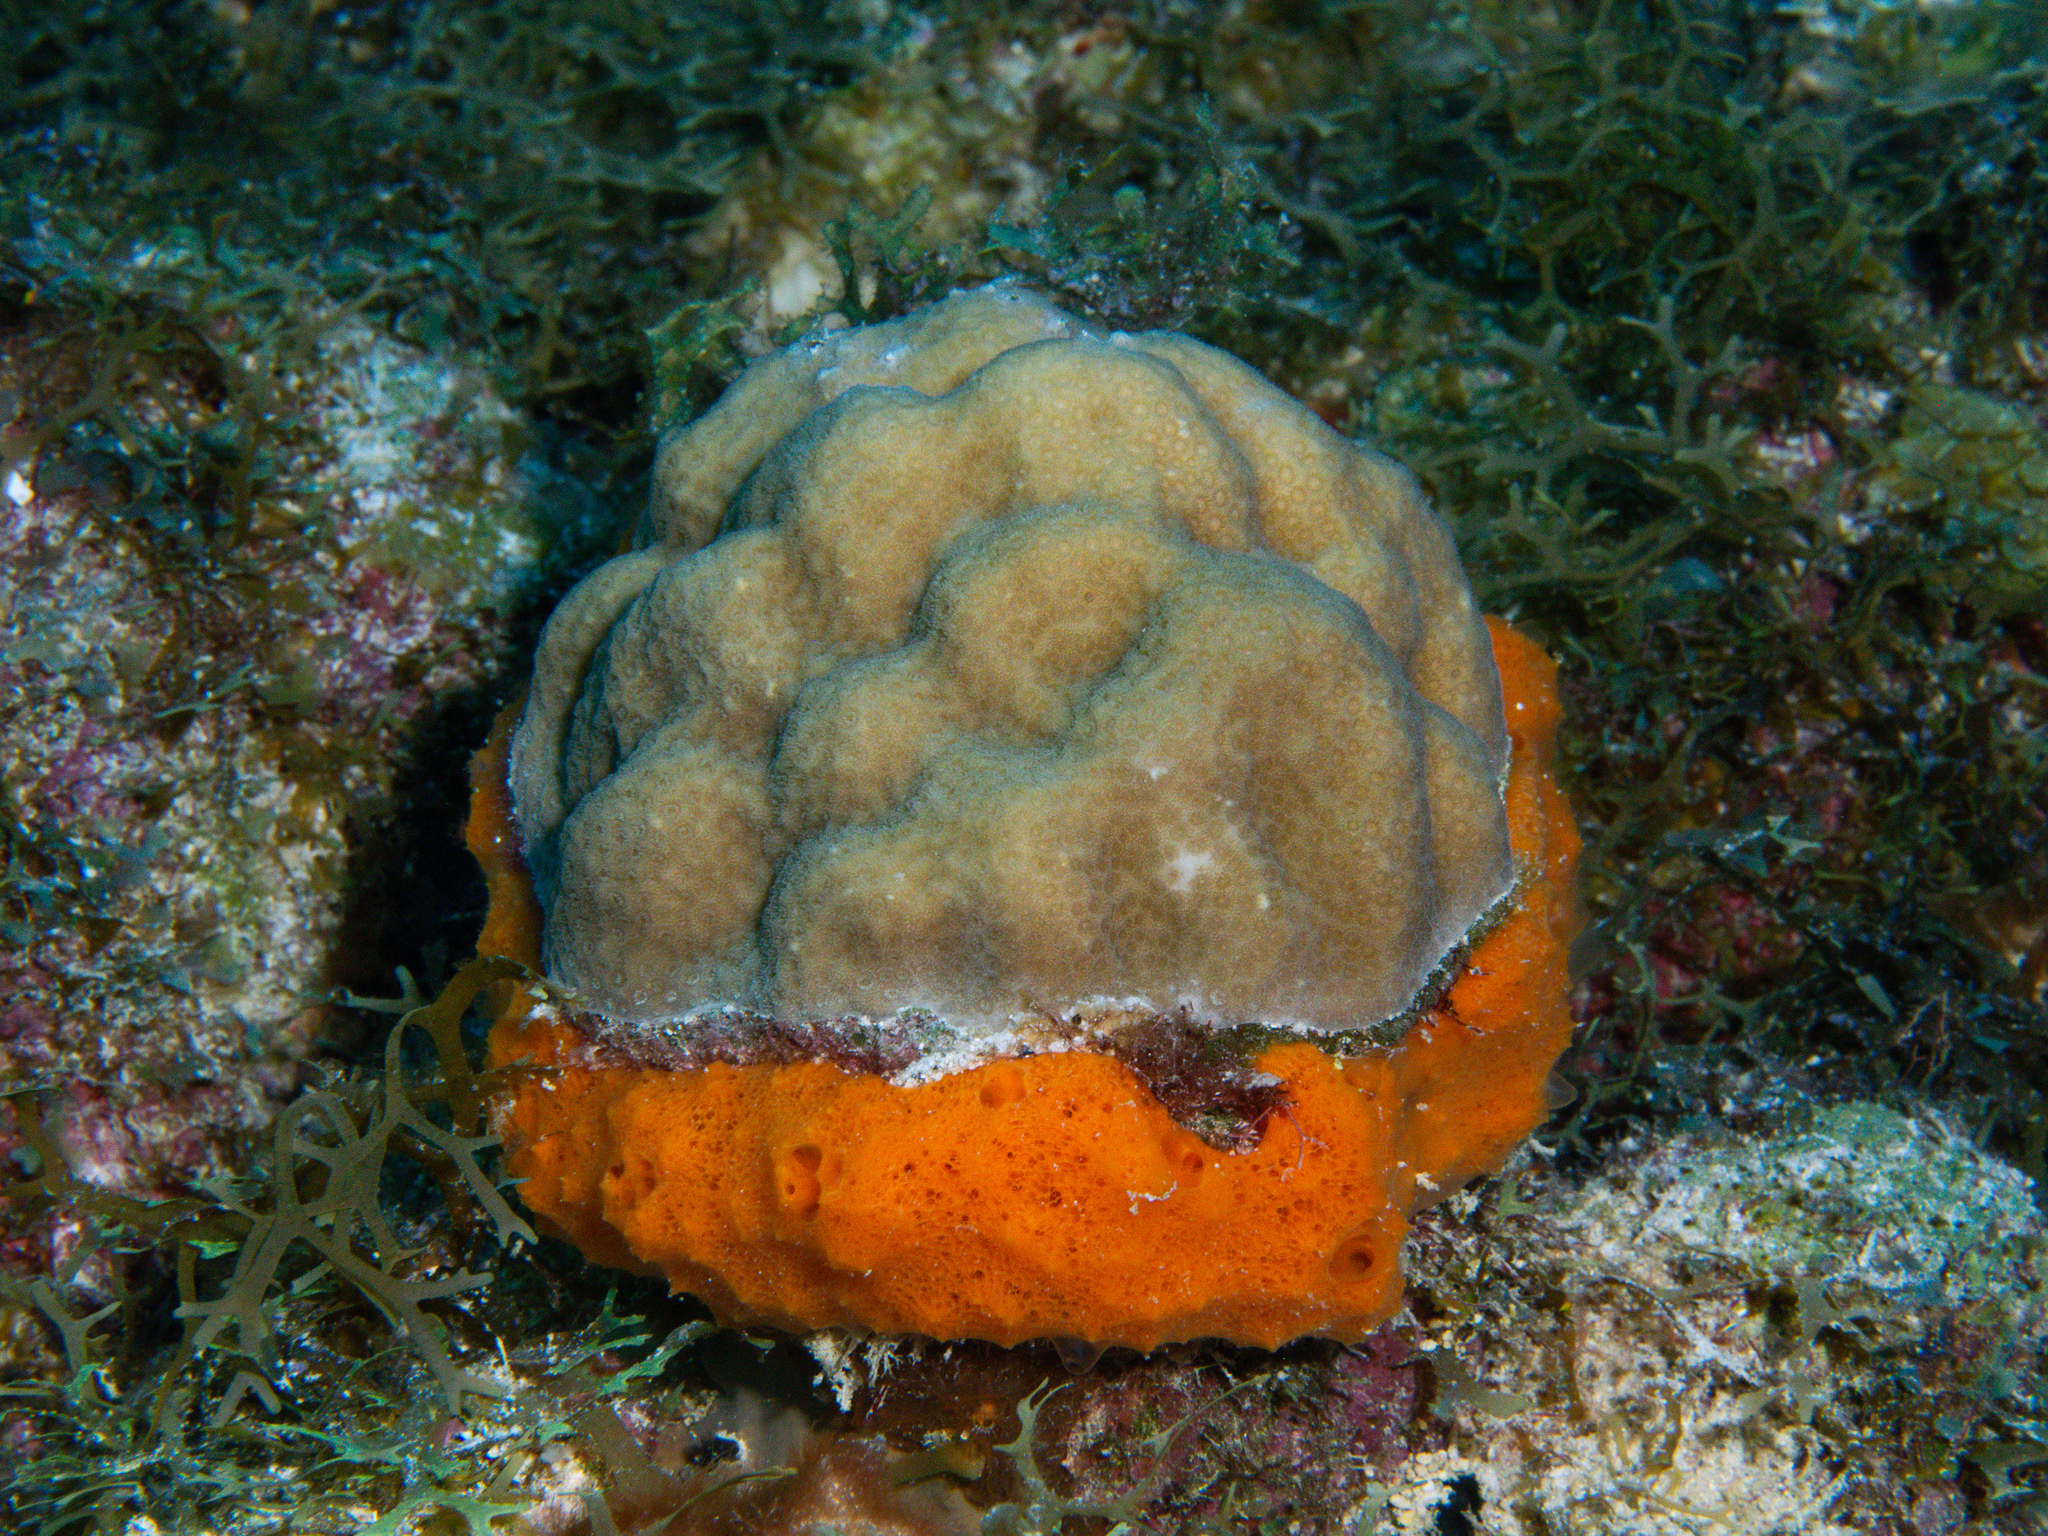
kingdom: Animalia
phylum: Porifera
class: Demospongiae
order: Scopalinida
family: Scopalinidae
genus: Scopalina
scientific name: Scopalina ruetzleri
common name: Orange lumpy encrusting sponge
